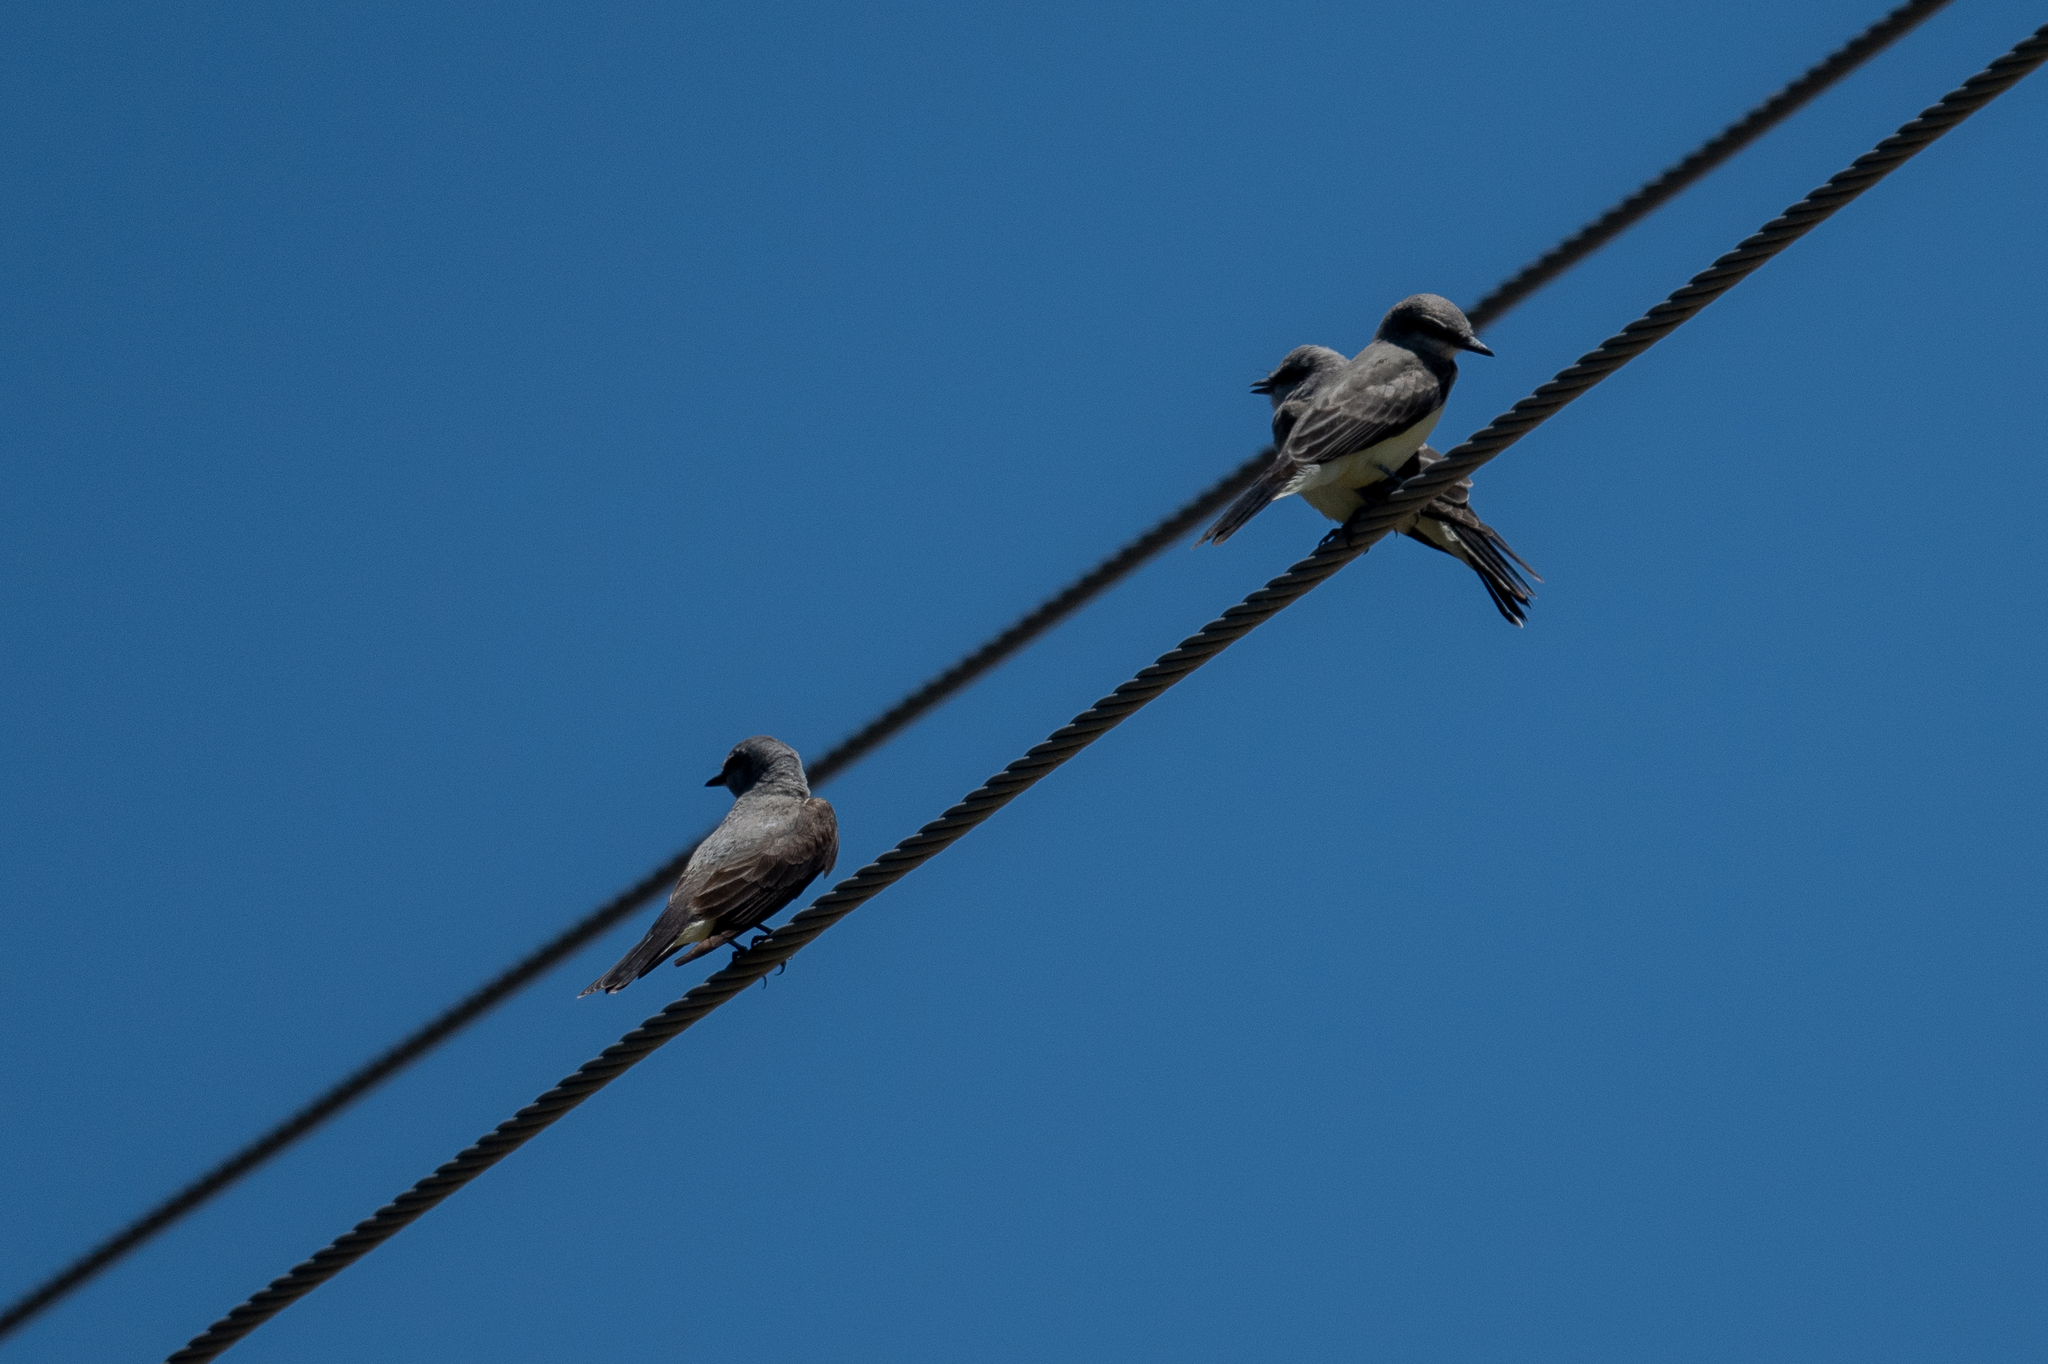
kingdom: Animalia
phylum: Chordata
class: Aves
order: Passeriformes
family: Tyrannidae
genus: Tyrannus
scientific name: Tyrannus verticalis
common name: Western kingbird
